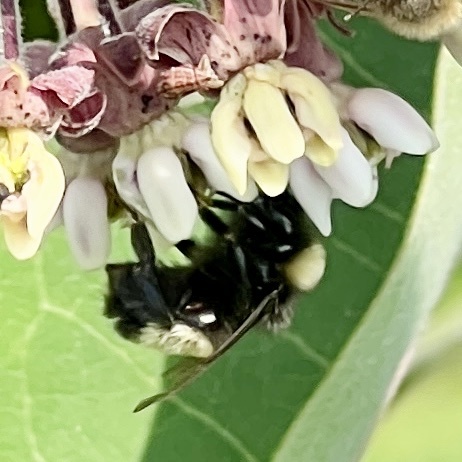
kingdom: Animalia
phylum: Arthropoda
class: Insecta
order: Hymenoptera
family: Apidae
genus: Bombus
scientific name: Bombus terricola
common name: Yellow-banded bumble bee
